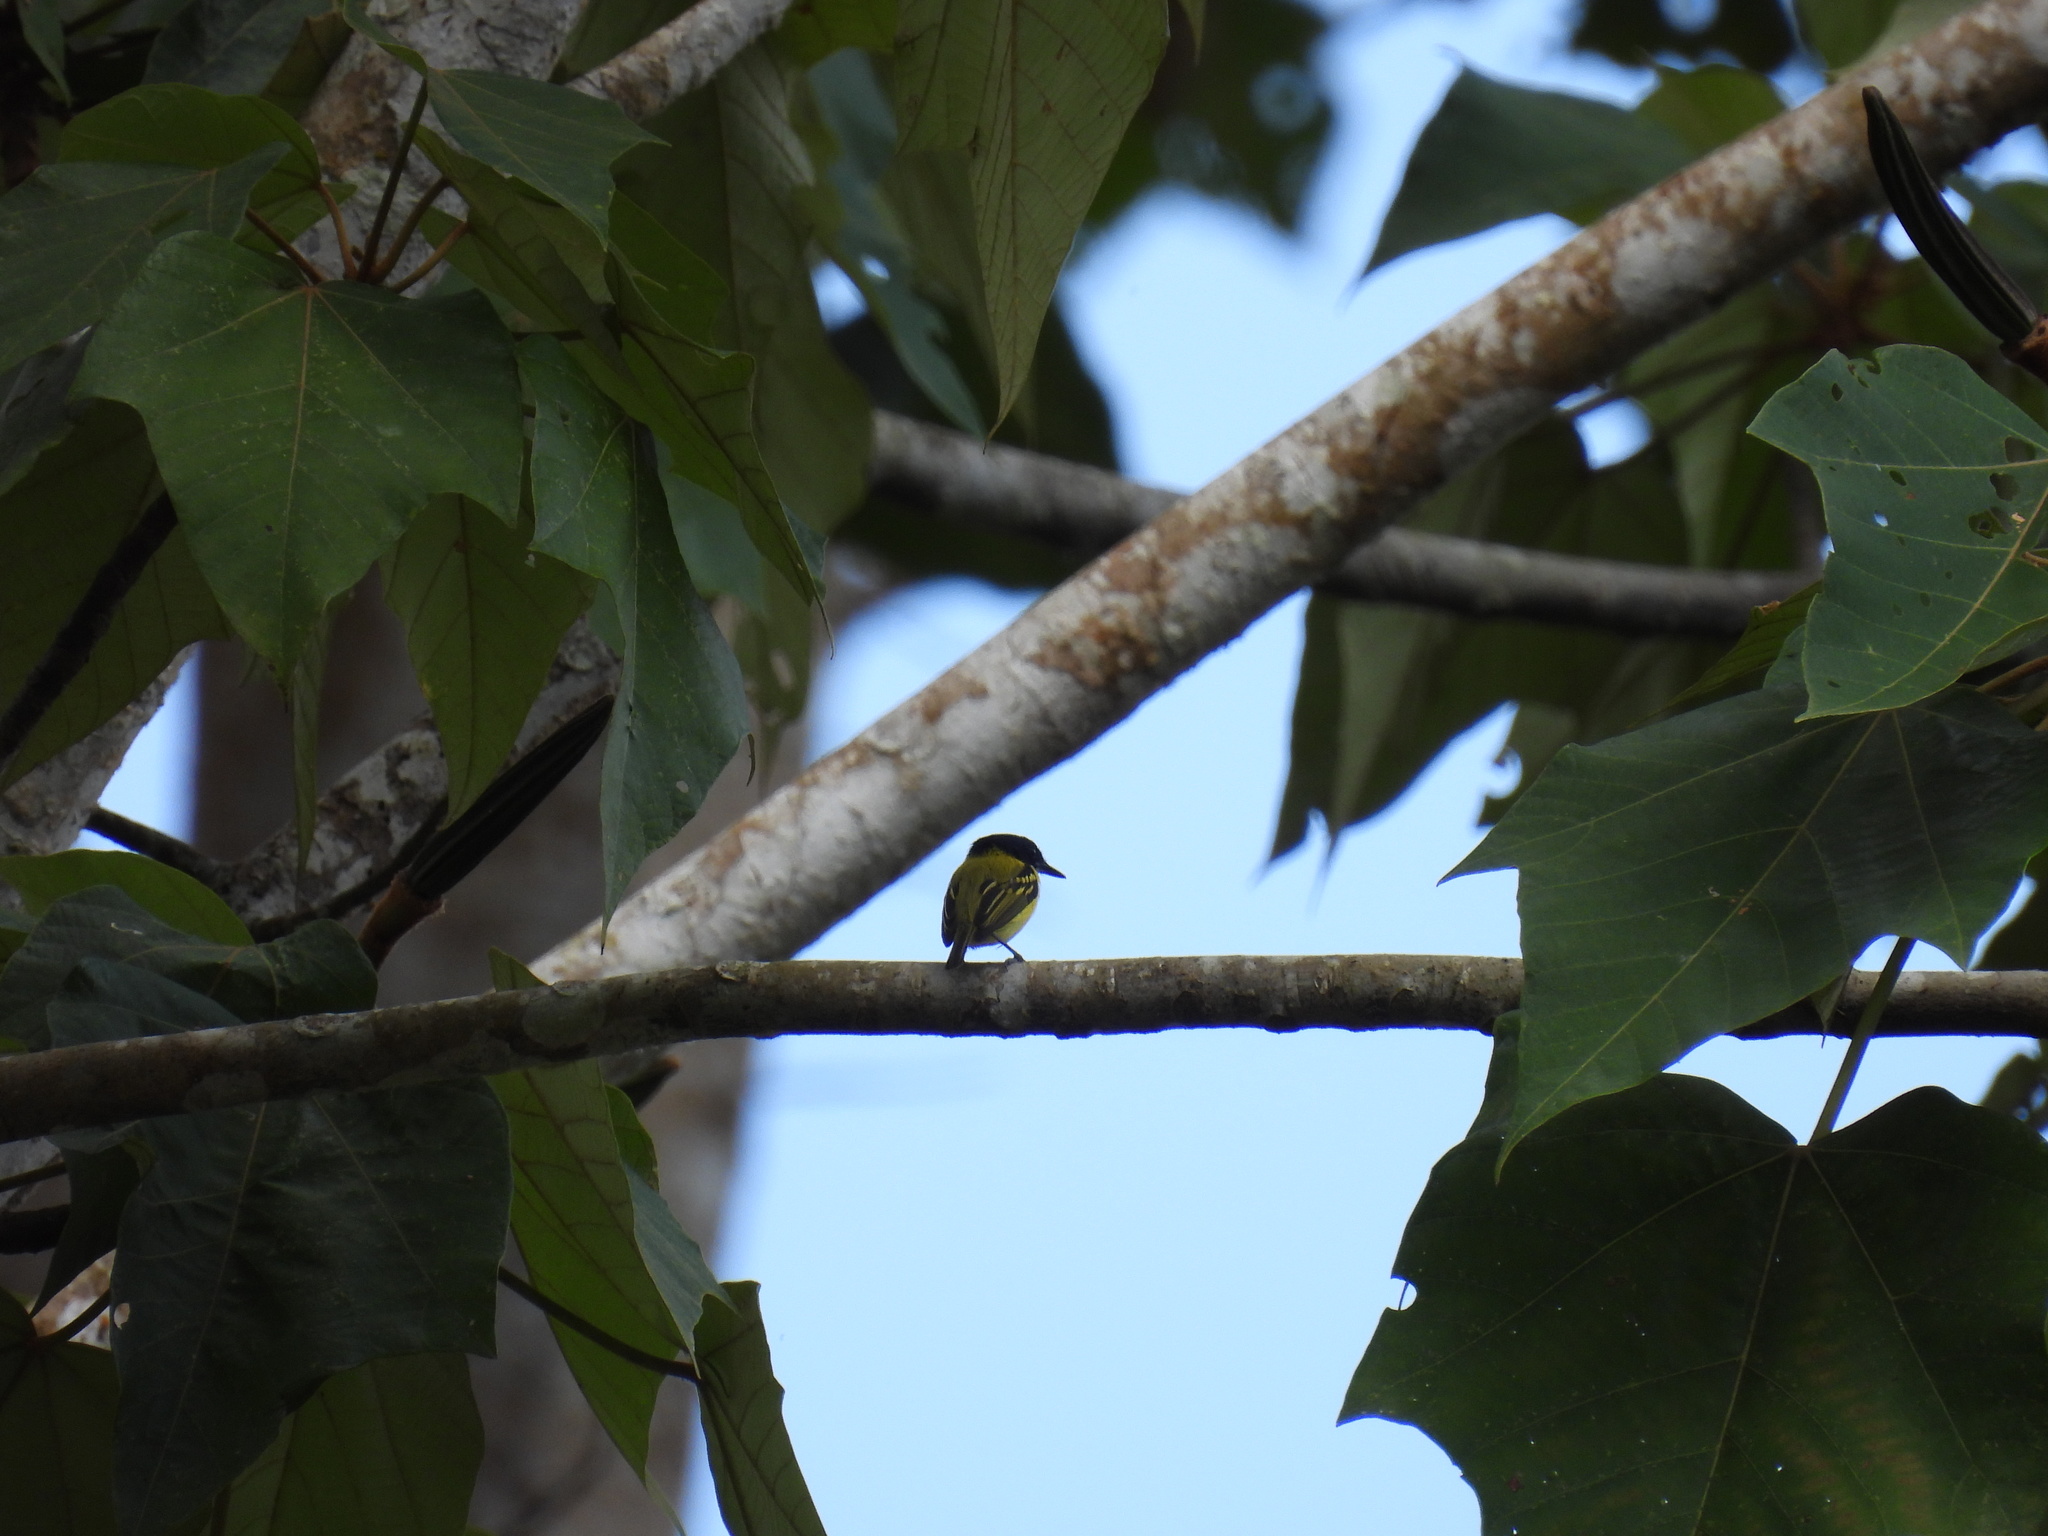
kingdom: Animalia
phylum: Chordata
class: Aves
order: Passeriformes
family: Tyrannidae
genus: Todirostrum
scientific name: Todirostrum nigriceps
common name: Black-headed tody-flycatcher
